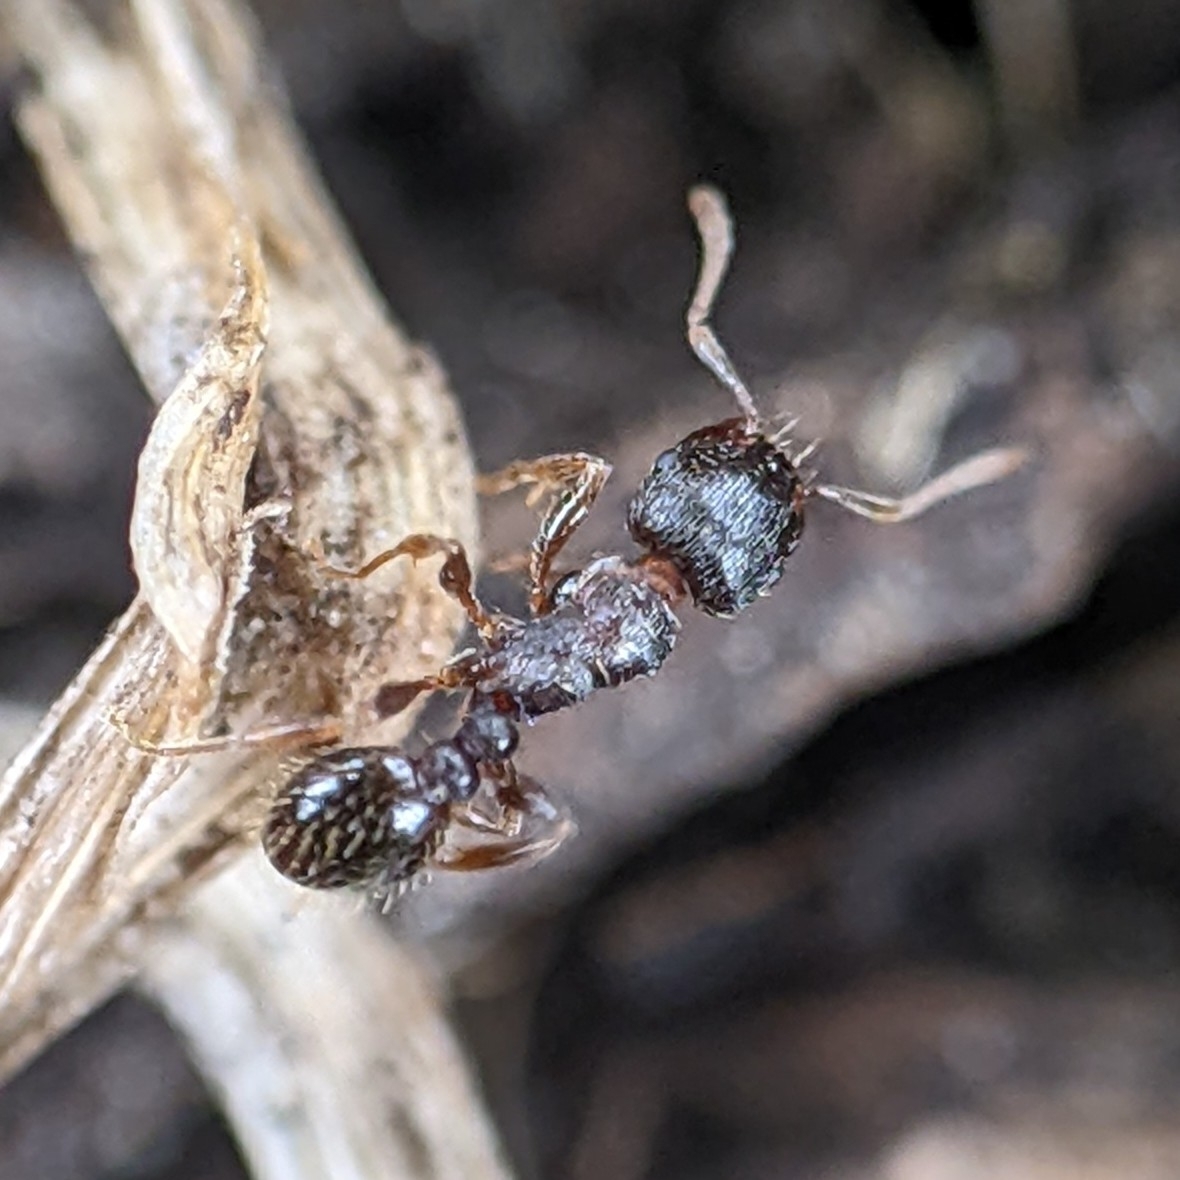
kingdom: Animalia
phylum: Arthropoda
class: Insecta
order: Hymenoptera
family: Formicidae
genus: Tetramorium
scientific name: Tetramorium immigrans
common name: Pavement ant
